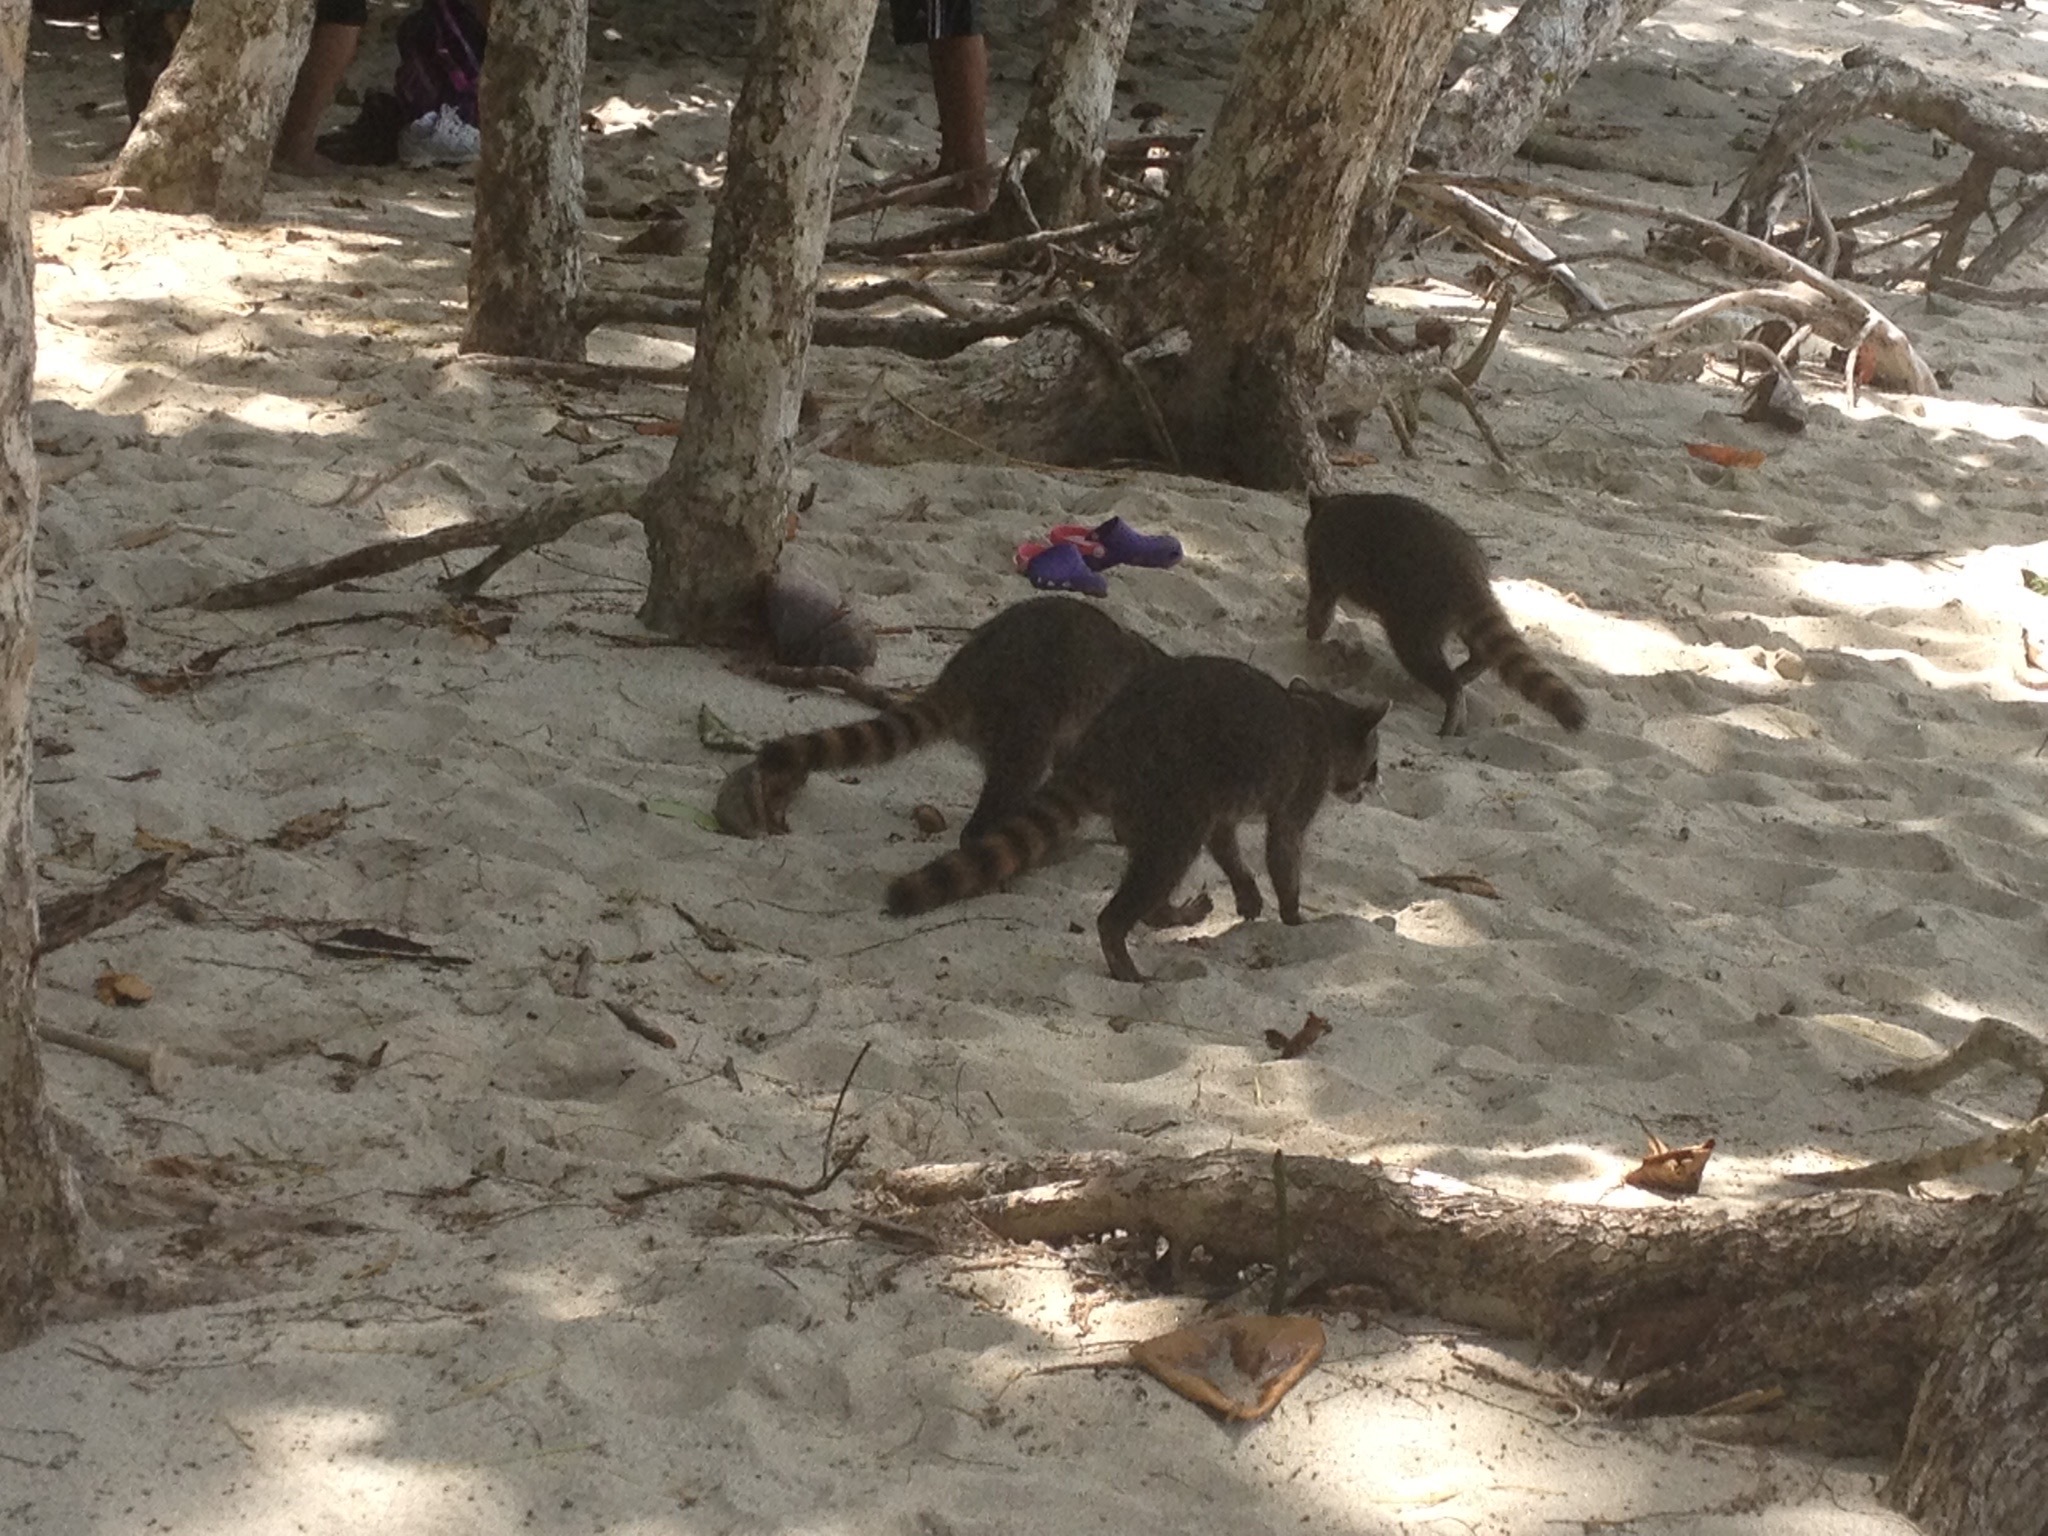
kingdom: Animalia
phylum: Chordata
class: Mammalia
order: Carnivora
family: Procyonidae
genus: Procyon
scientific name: Procyon lotor
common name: Raccoon
